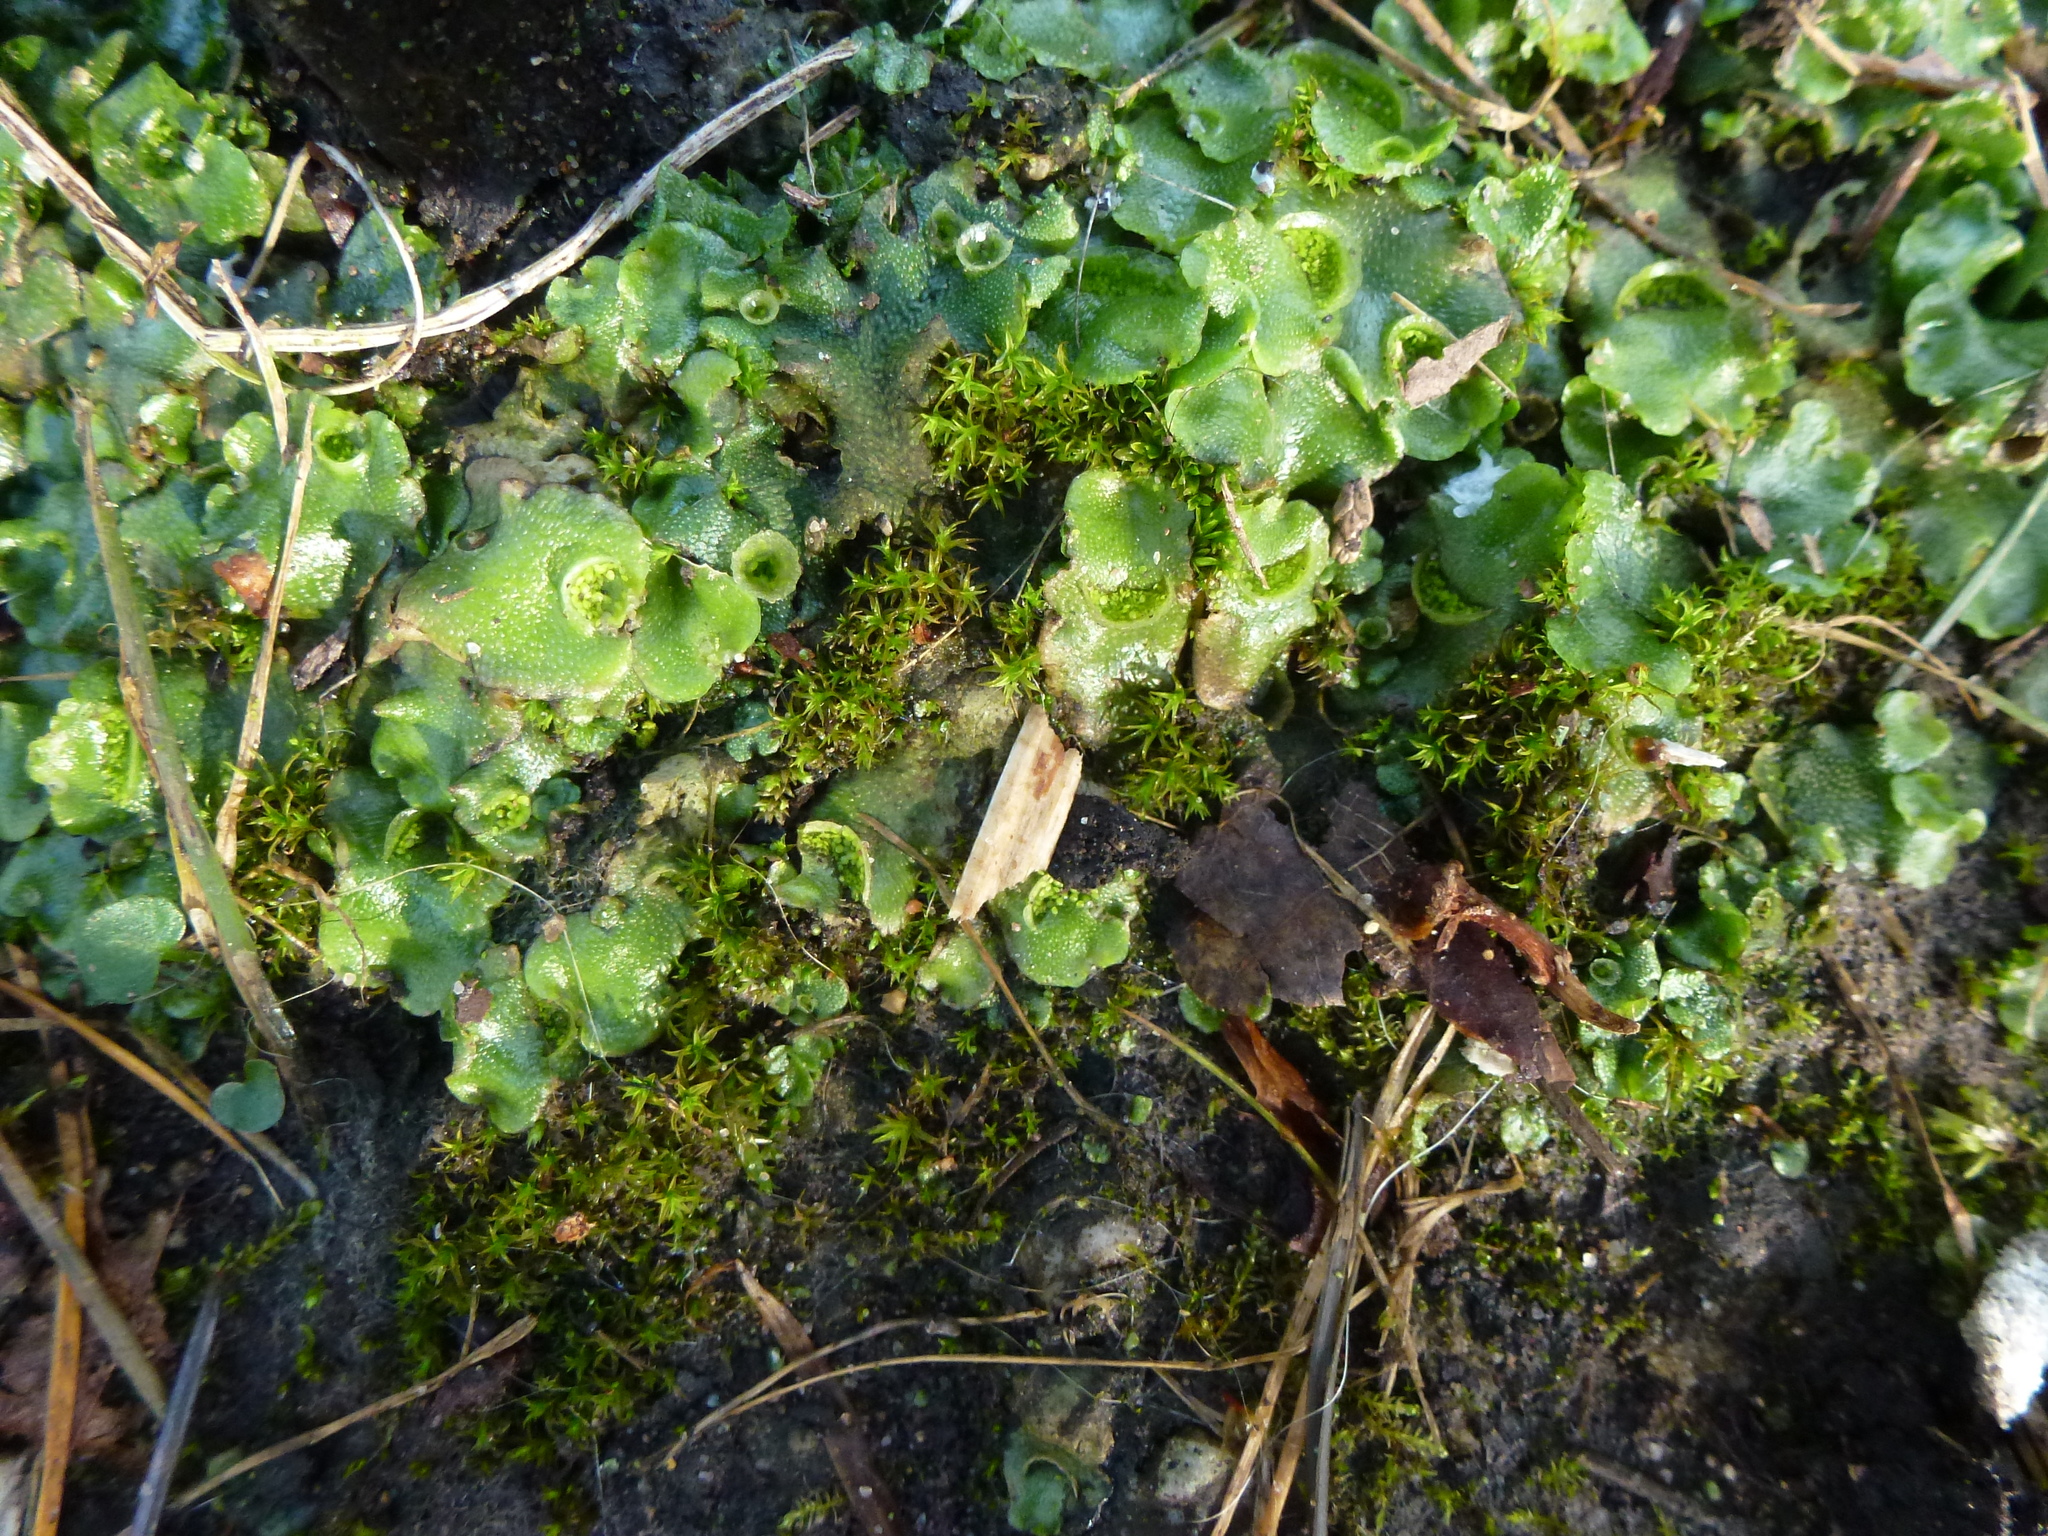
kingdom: Plantae
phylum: Marchantiophyta
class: Marchantiopsida
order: Marchantiales
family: Marchantiaceae
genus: Marchantia
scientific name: Marchantia polymorpha
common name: Common liverwort
